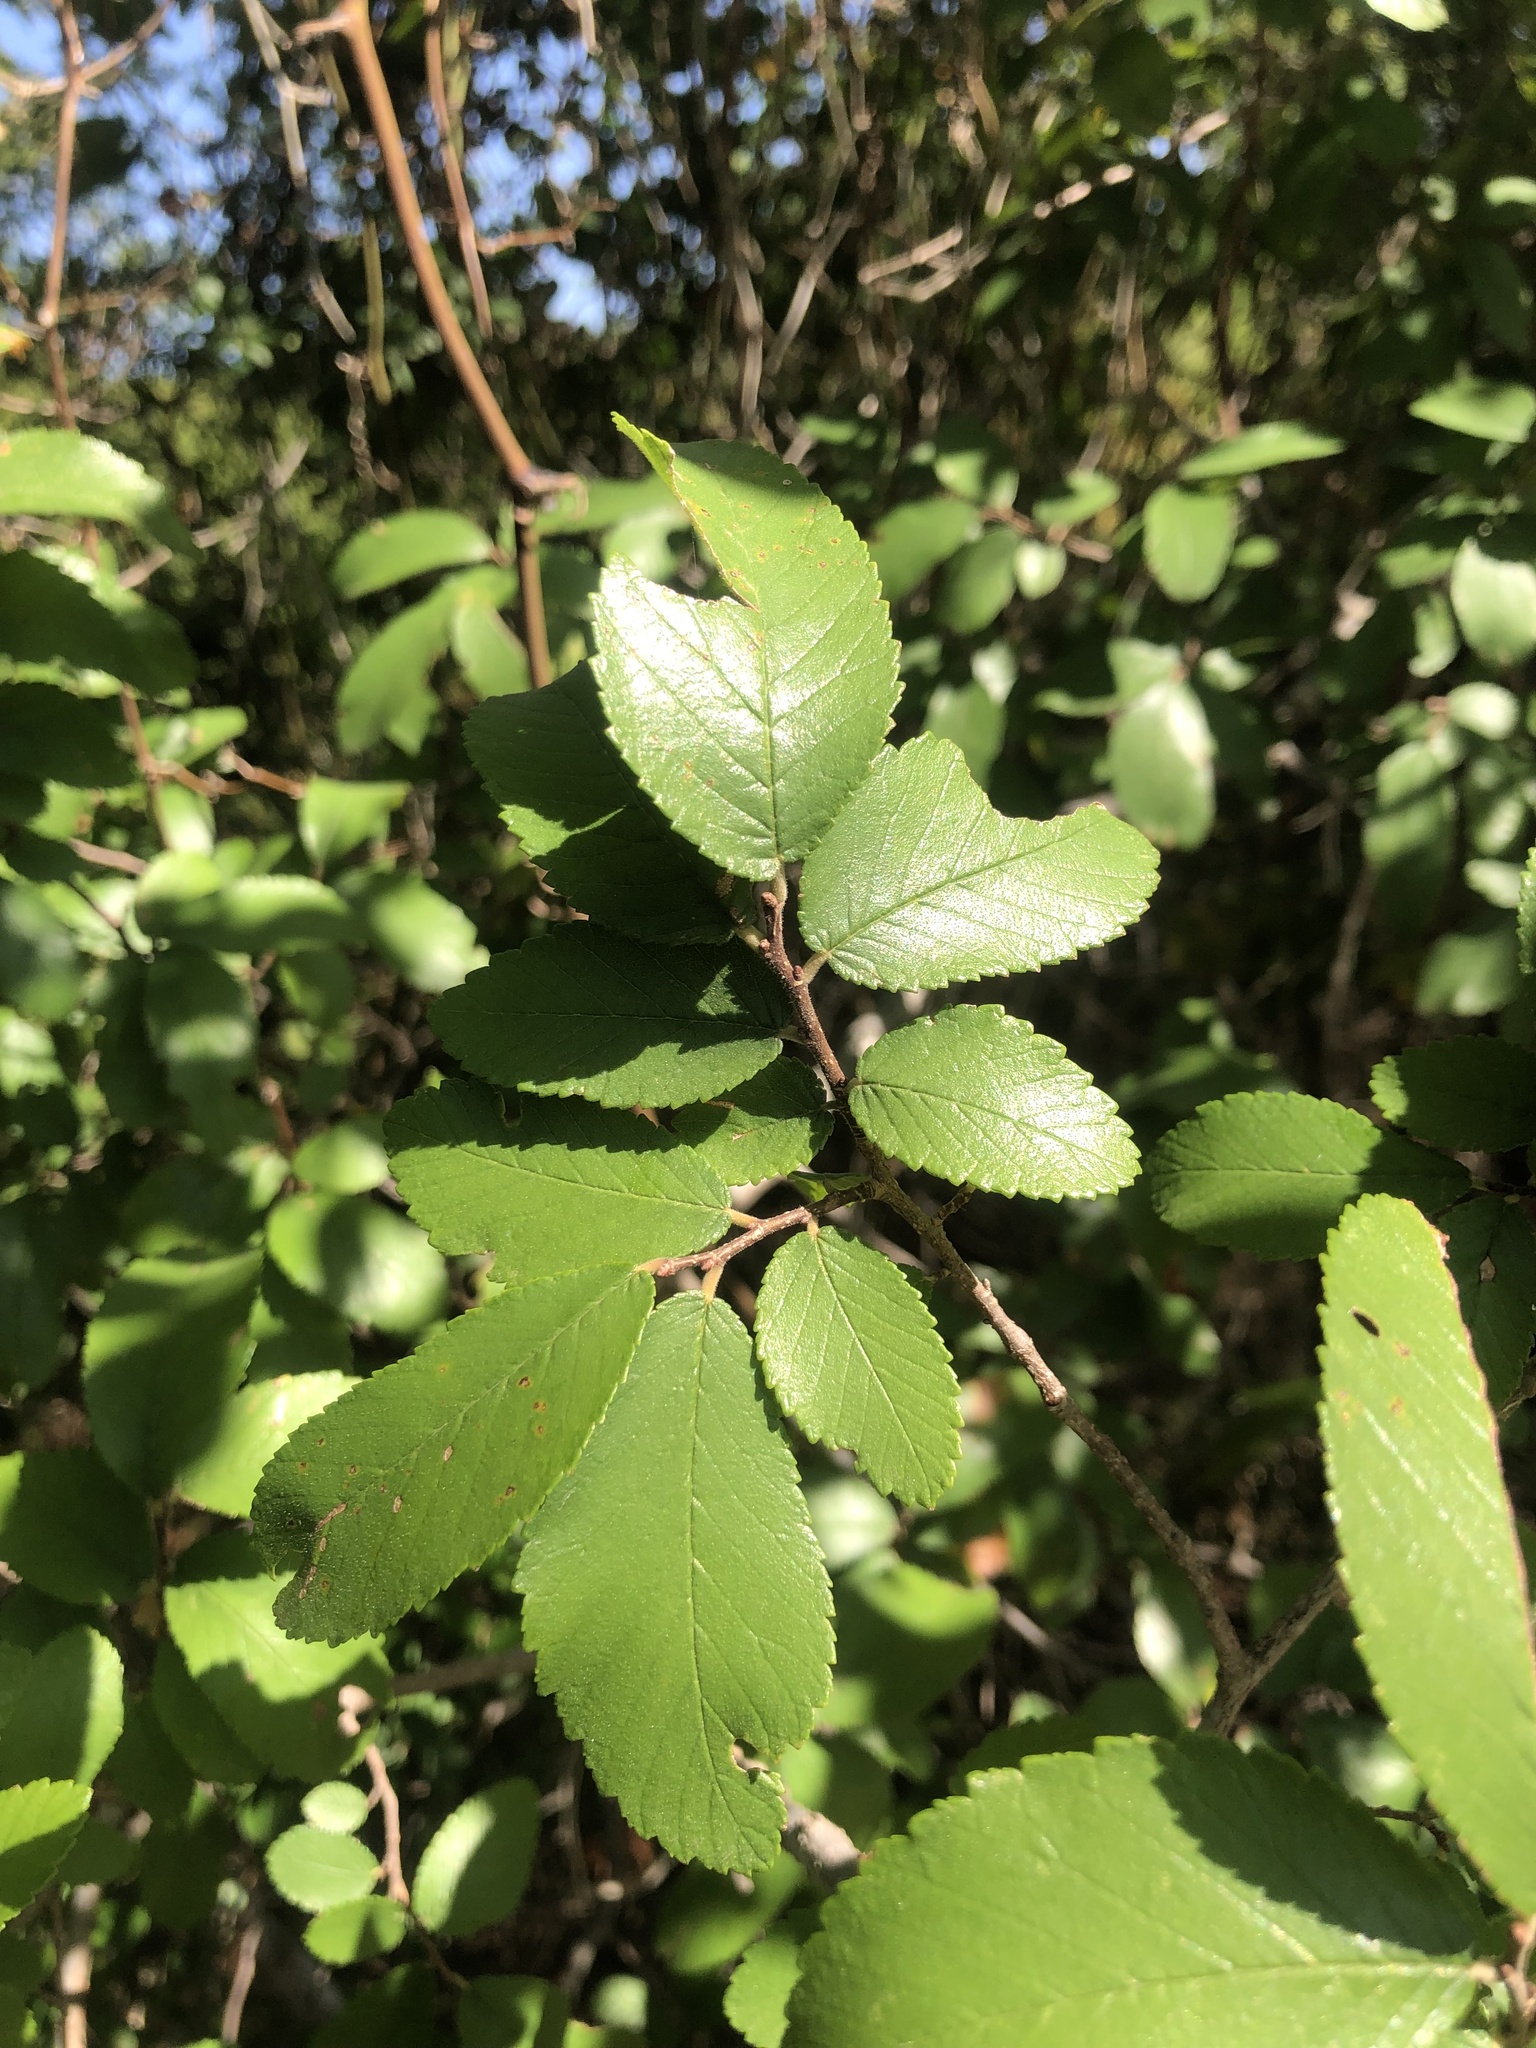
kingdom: Plantae
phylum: Tracheophyta
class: Magnoliopsida
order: Rosales
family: Ulmaceae
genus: Ulmus
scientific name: Ulmus crassifolia
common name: Basket elm
